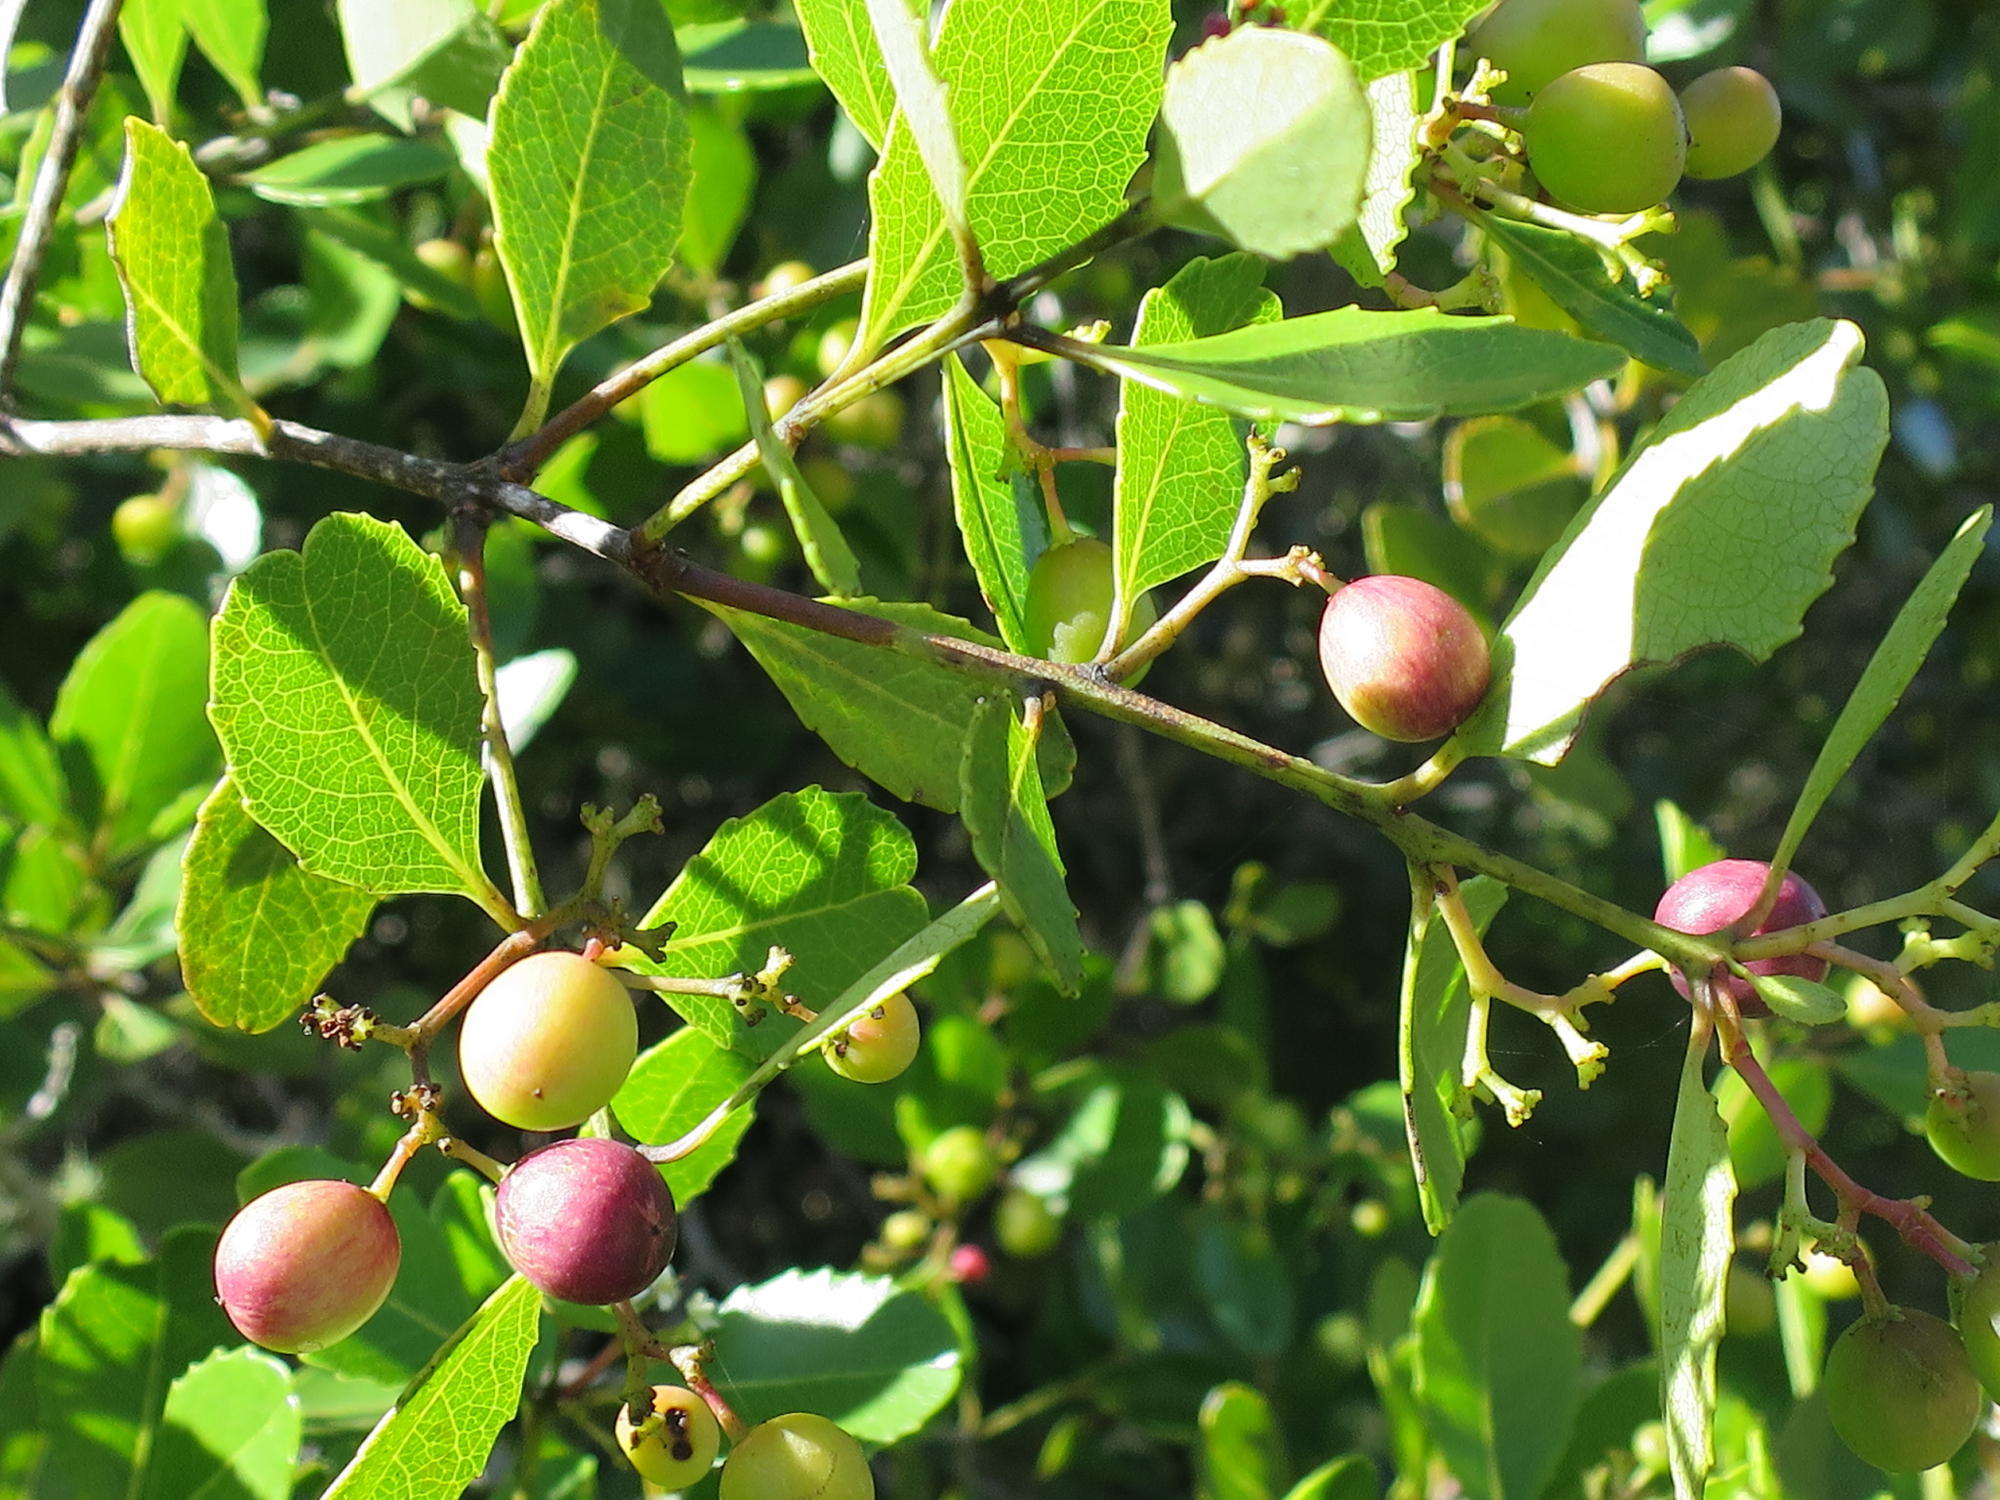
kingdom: Plantae
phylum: Tracheophyta
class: Magnoliopsida
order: Celastrales
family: Celastraceae
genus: Cassine
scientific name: Cassine peragua
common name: Cape saffron
